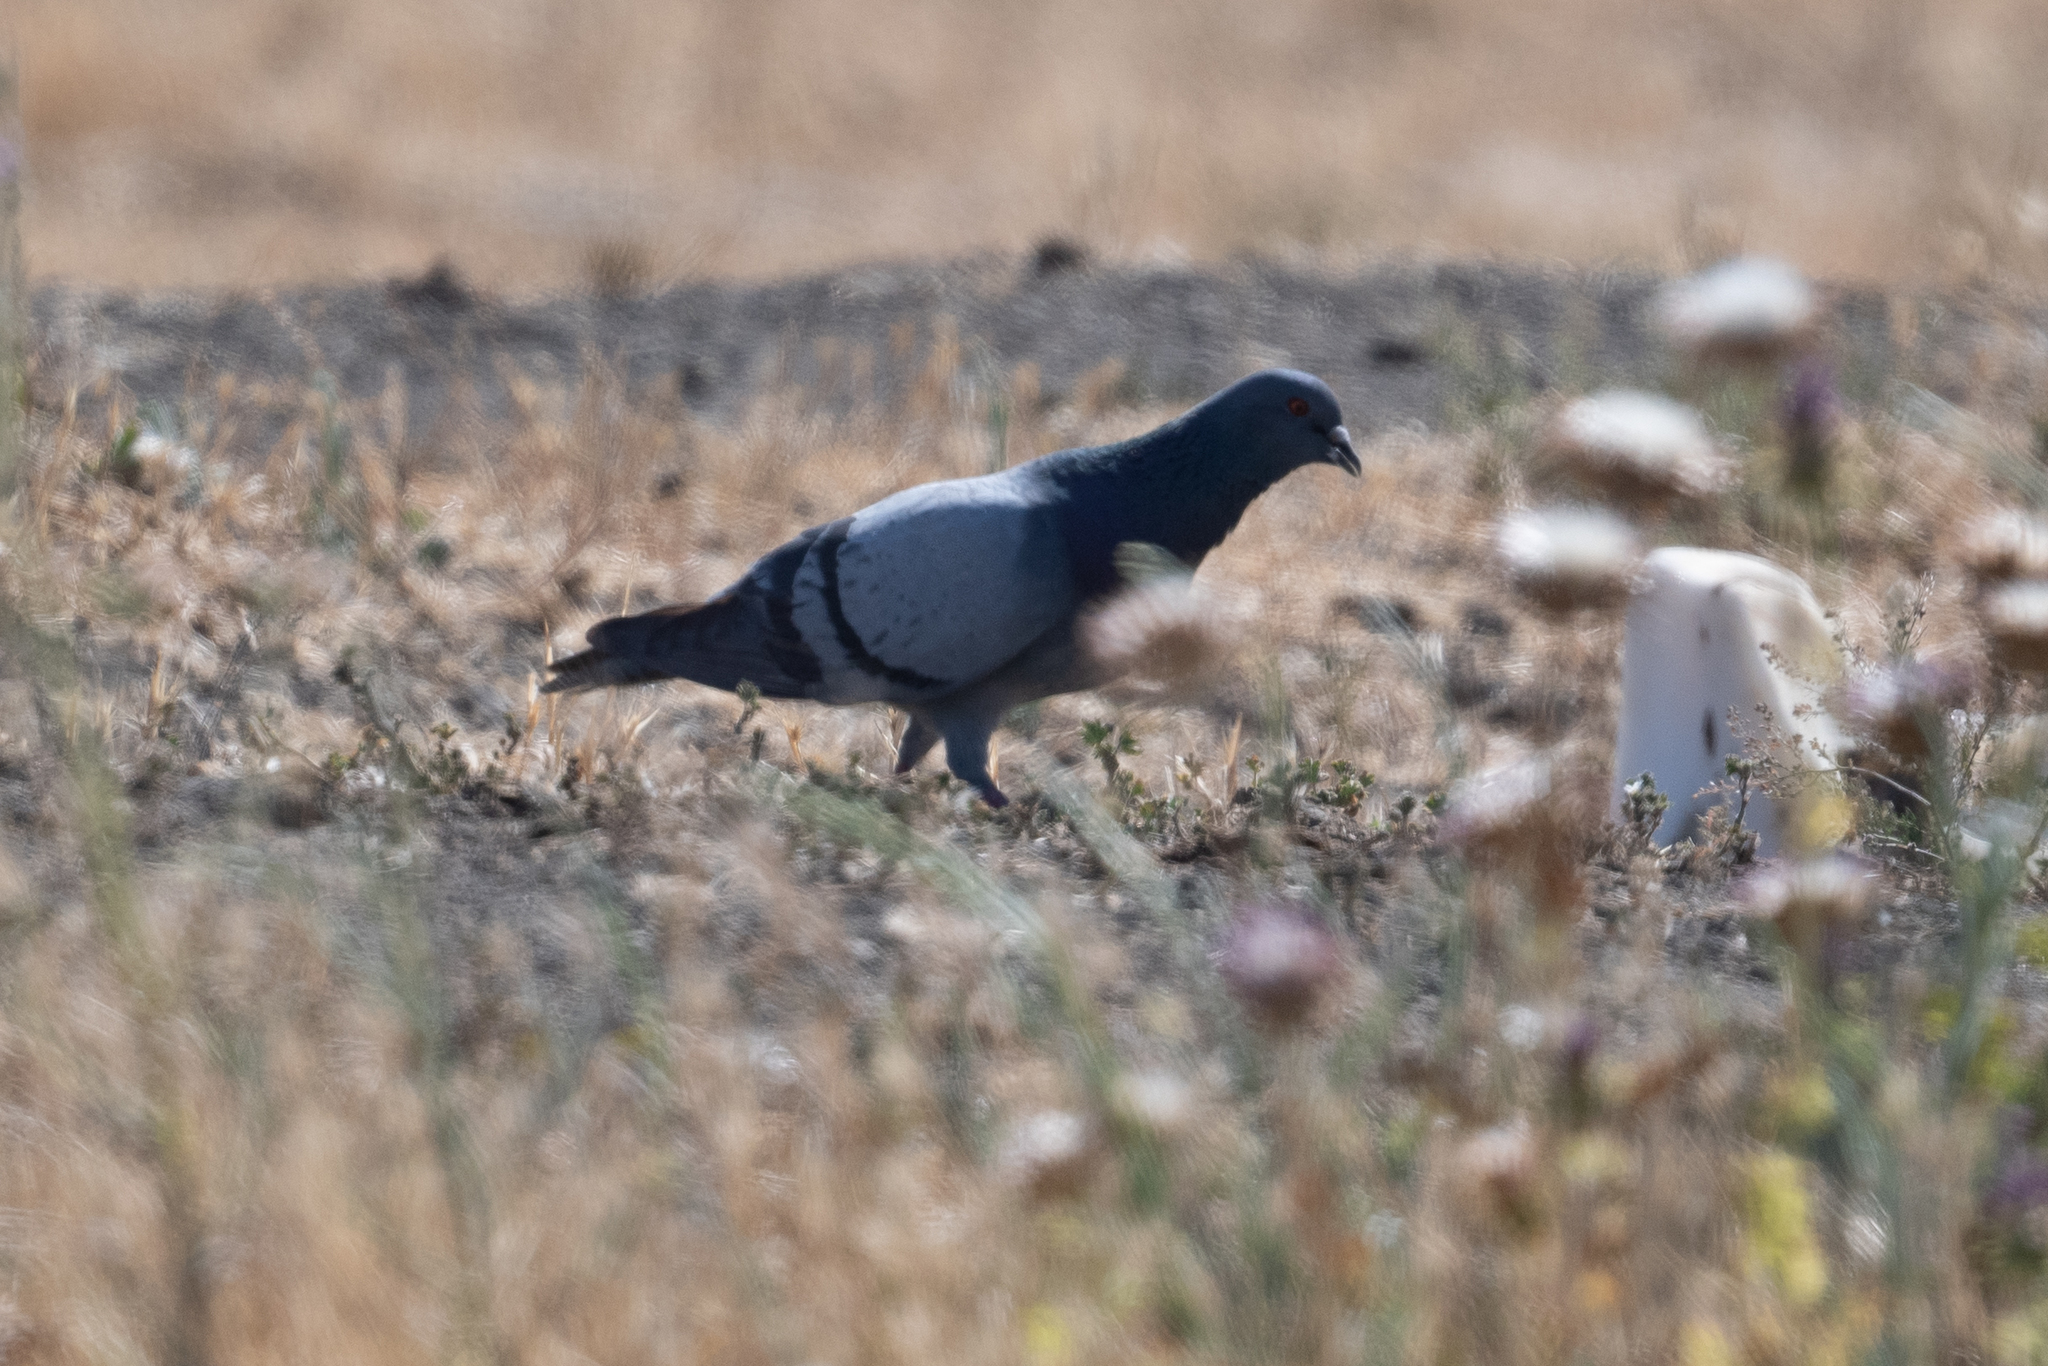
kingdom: Animalia
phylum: Chordata
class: Aves
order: Columbiformes
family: Columbidae
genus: Columba
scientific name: Columba livia
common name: Rock pigeon
